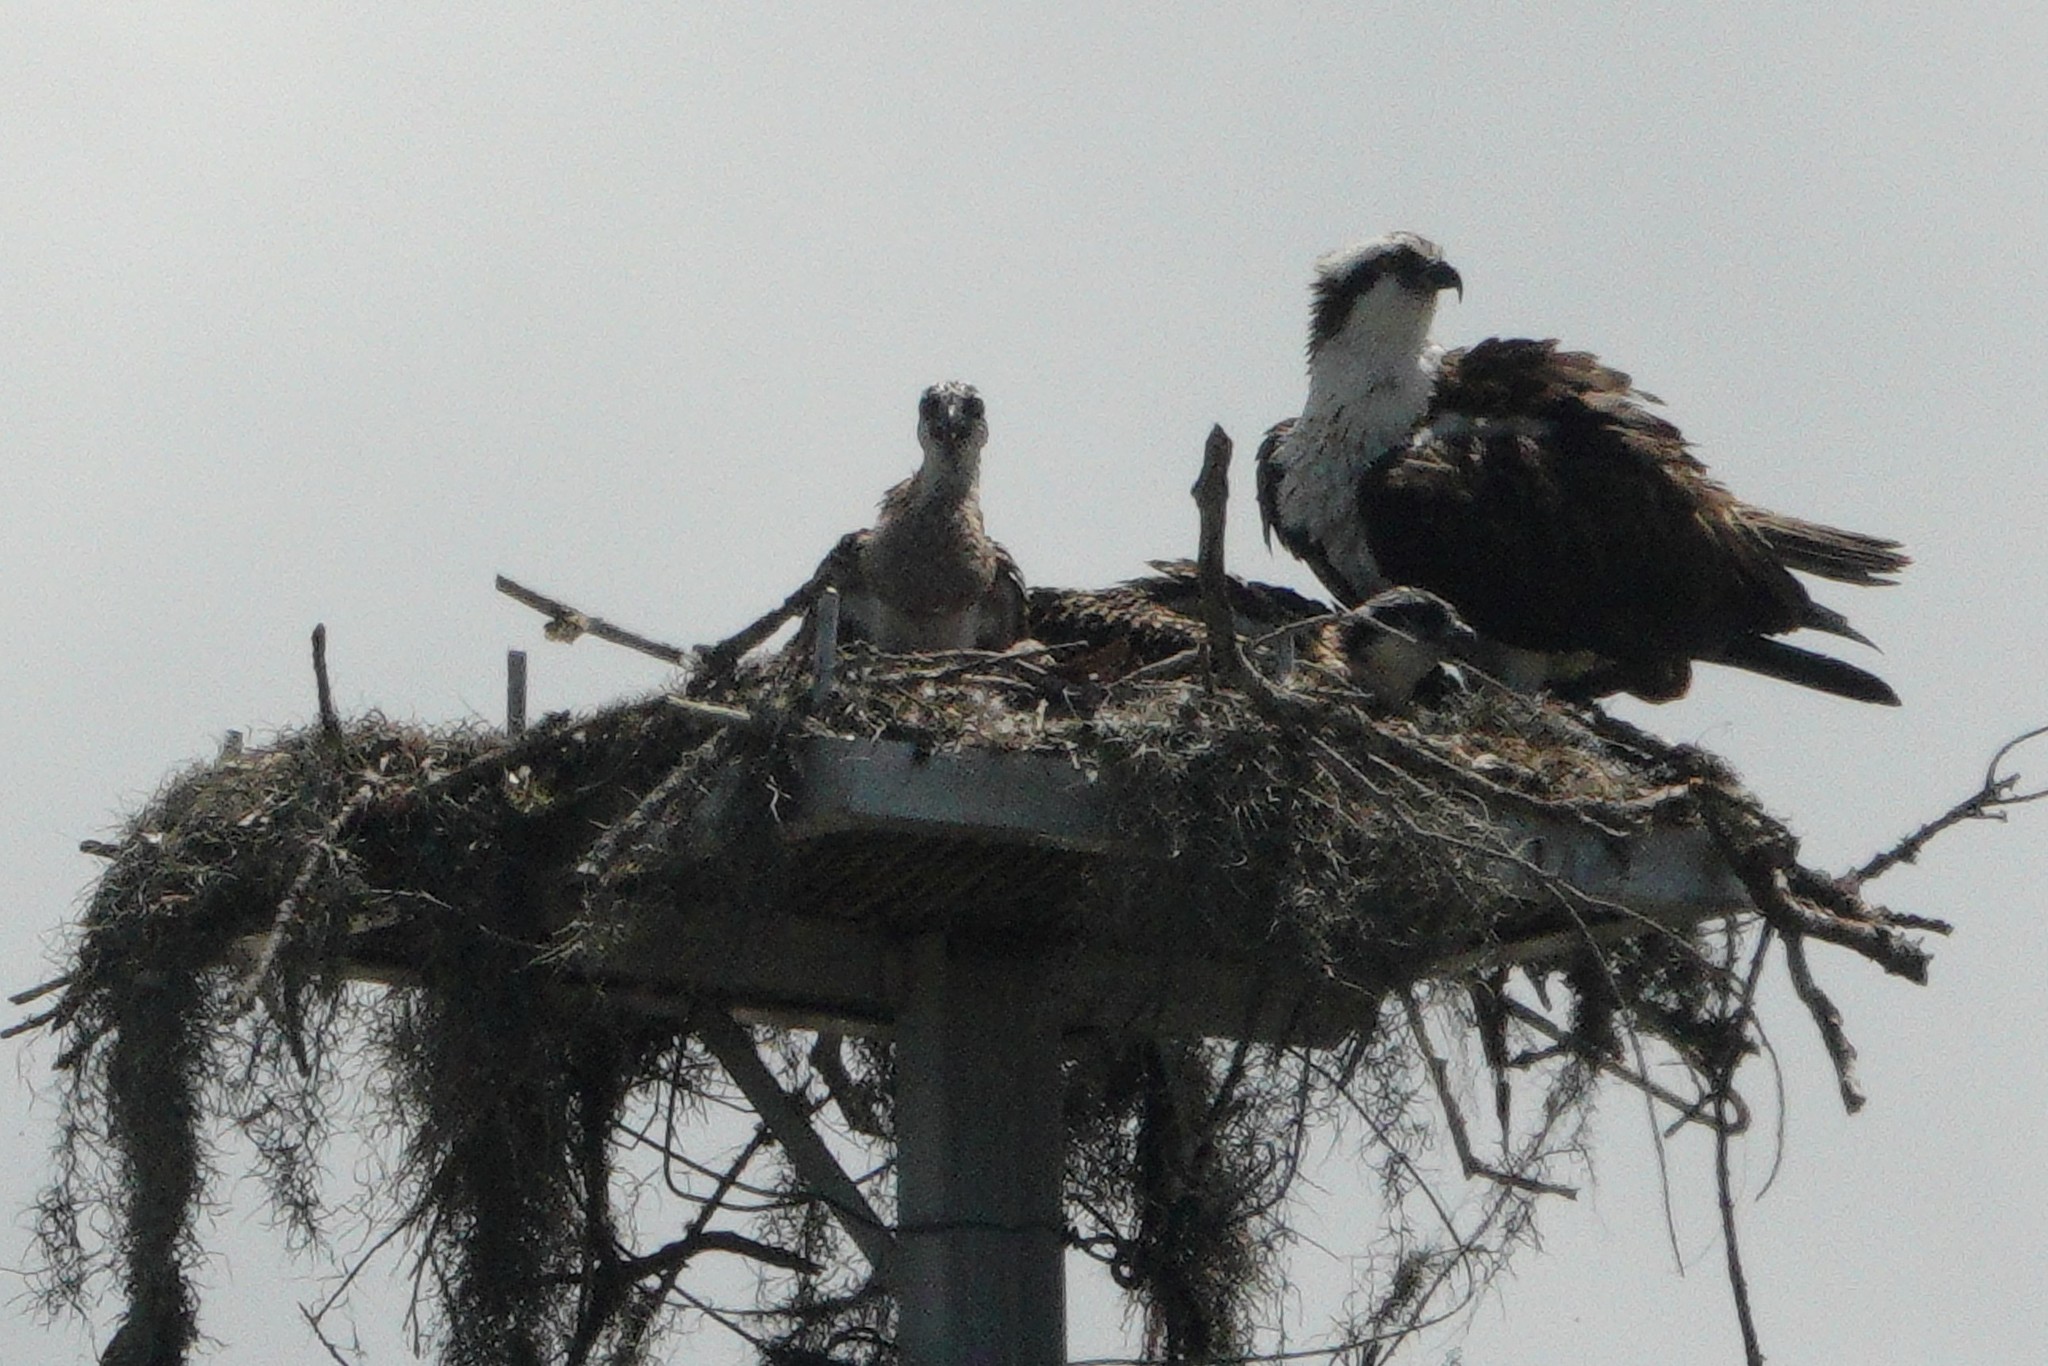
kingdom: Animalia
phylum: Chordata
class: Aves
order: Accipitriformes
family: Pandionidae
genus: Pandion
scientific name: Pandion haliaetus
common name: Osprey
